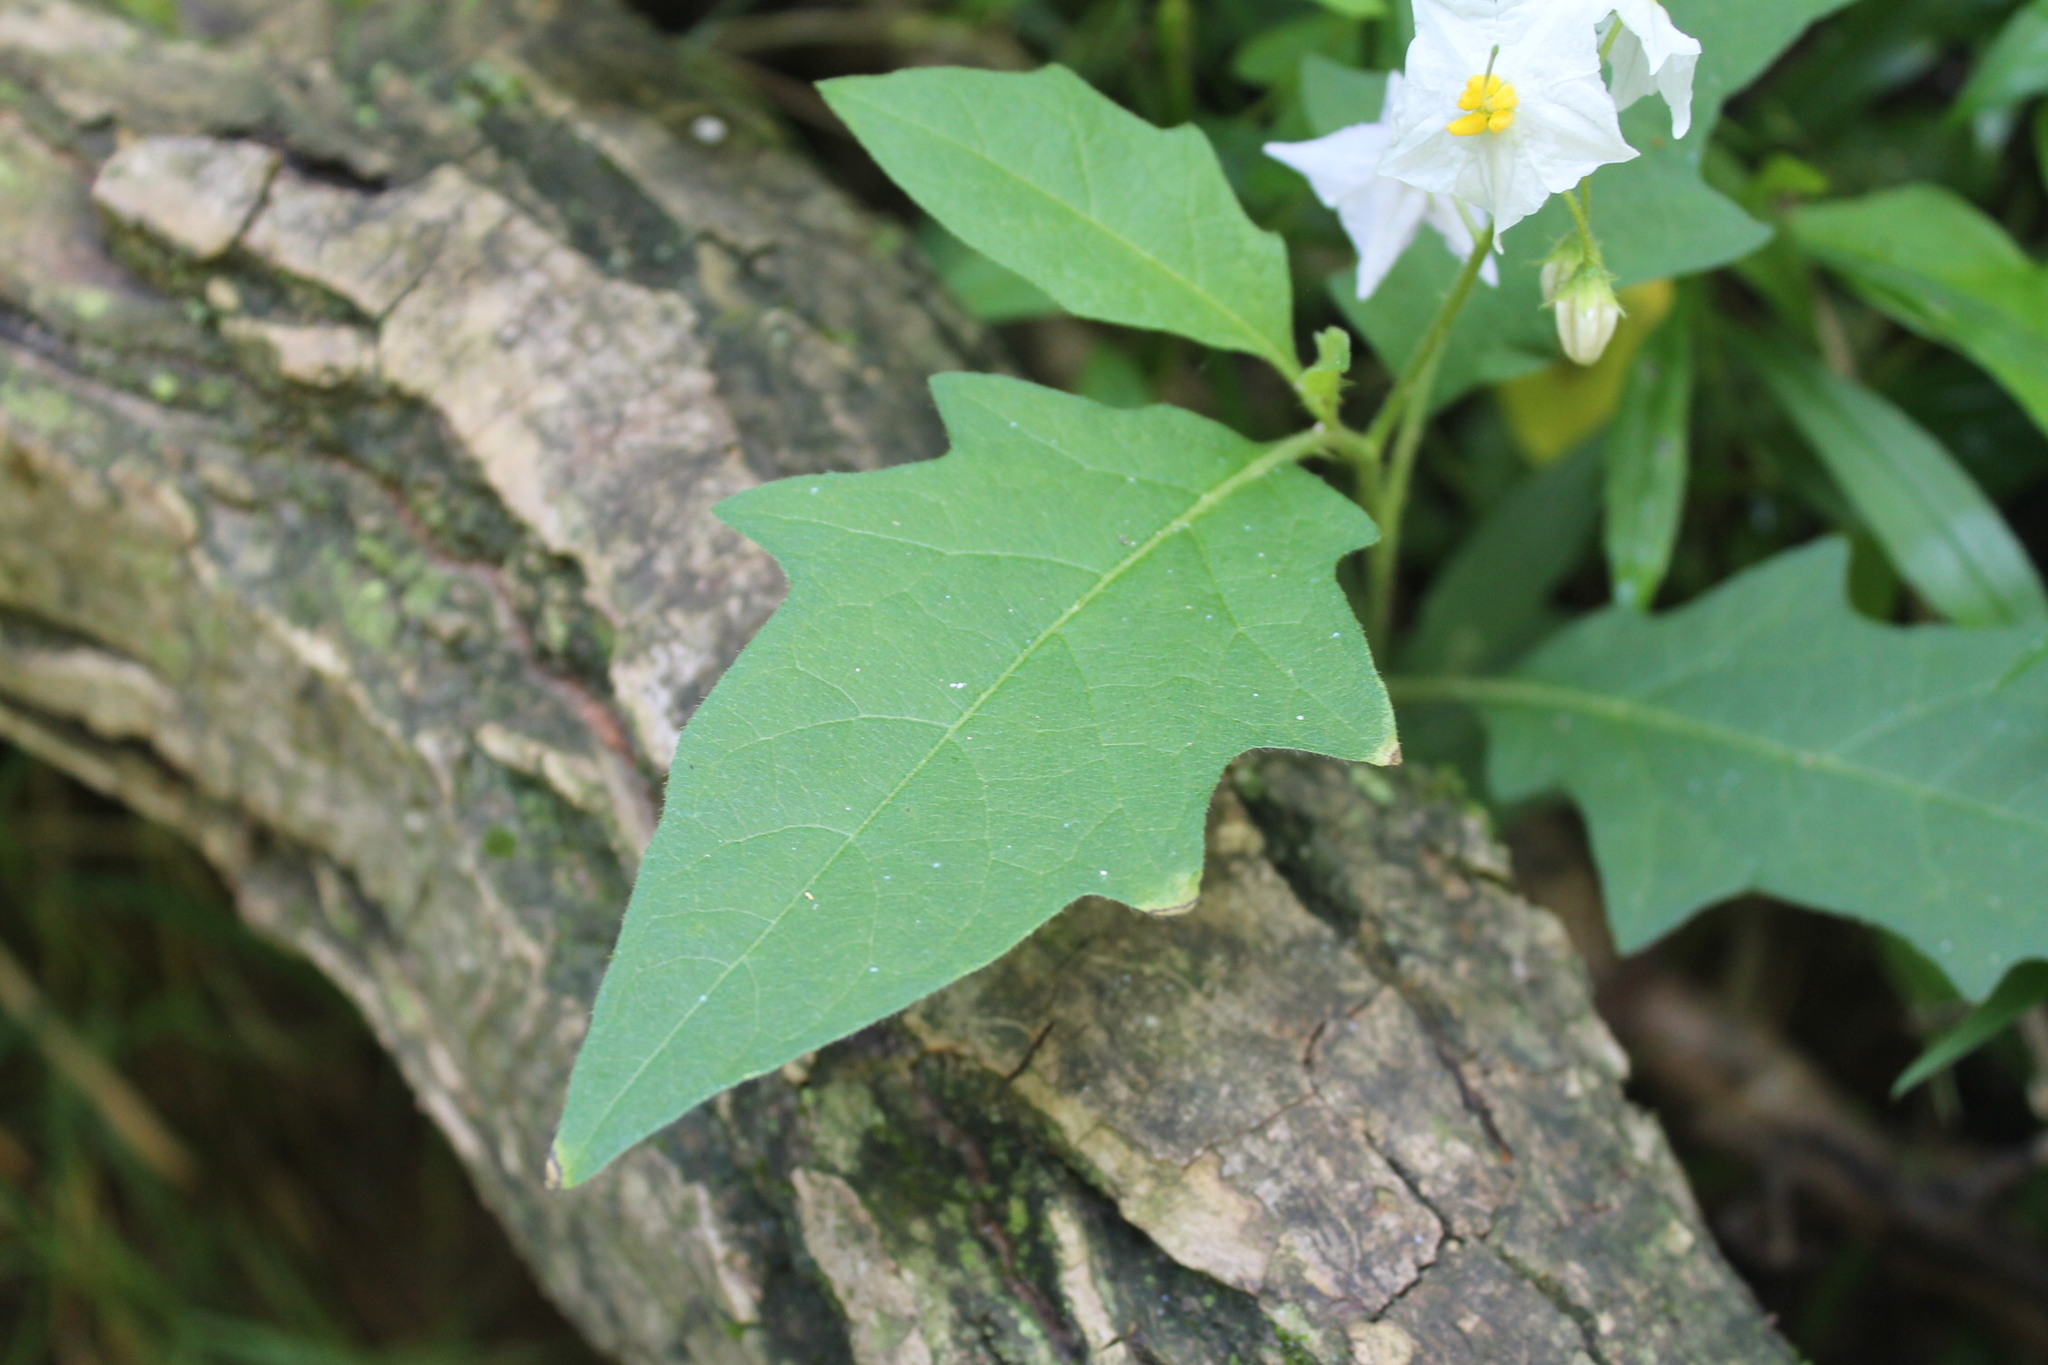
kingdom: Plantae
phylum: Tracheophyta
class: Magnoliopsida
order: Solanales
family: Solanaceae
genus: Solanum
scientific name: Solanum carolinense
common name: Horse-nettle
